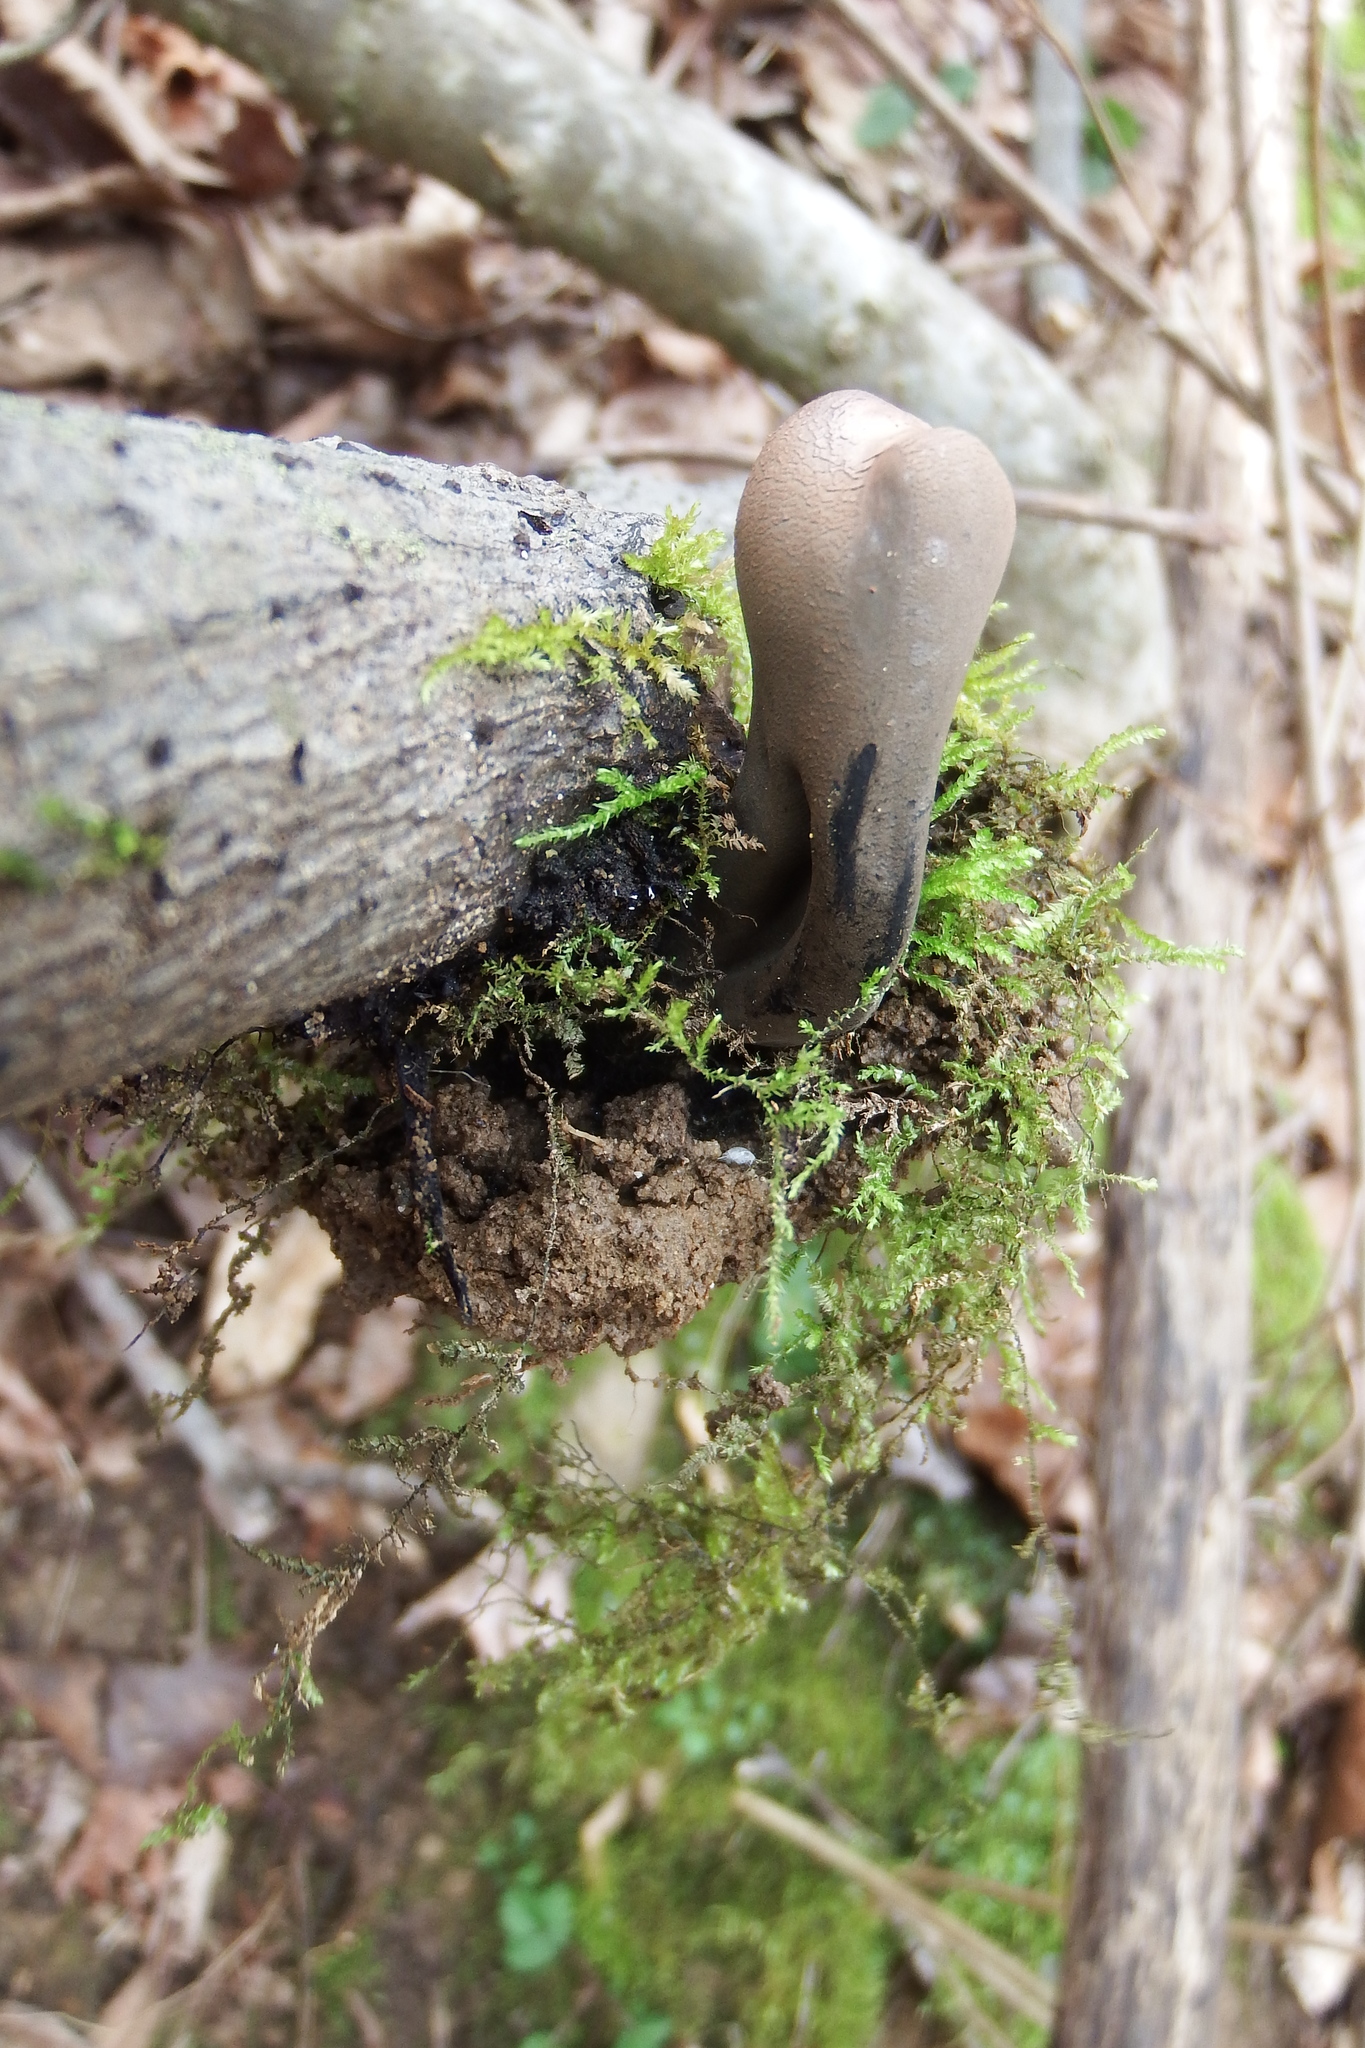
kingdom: Fungi
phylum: Ascomycota
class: Pezizomycetes
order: Pezizales
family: Sarcosomataceae
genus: Urnula
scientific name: Urnula craterium
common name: Devil's urn
